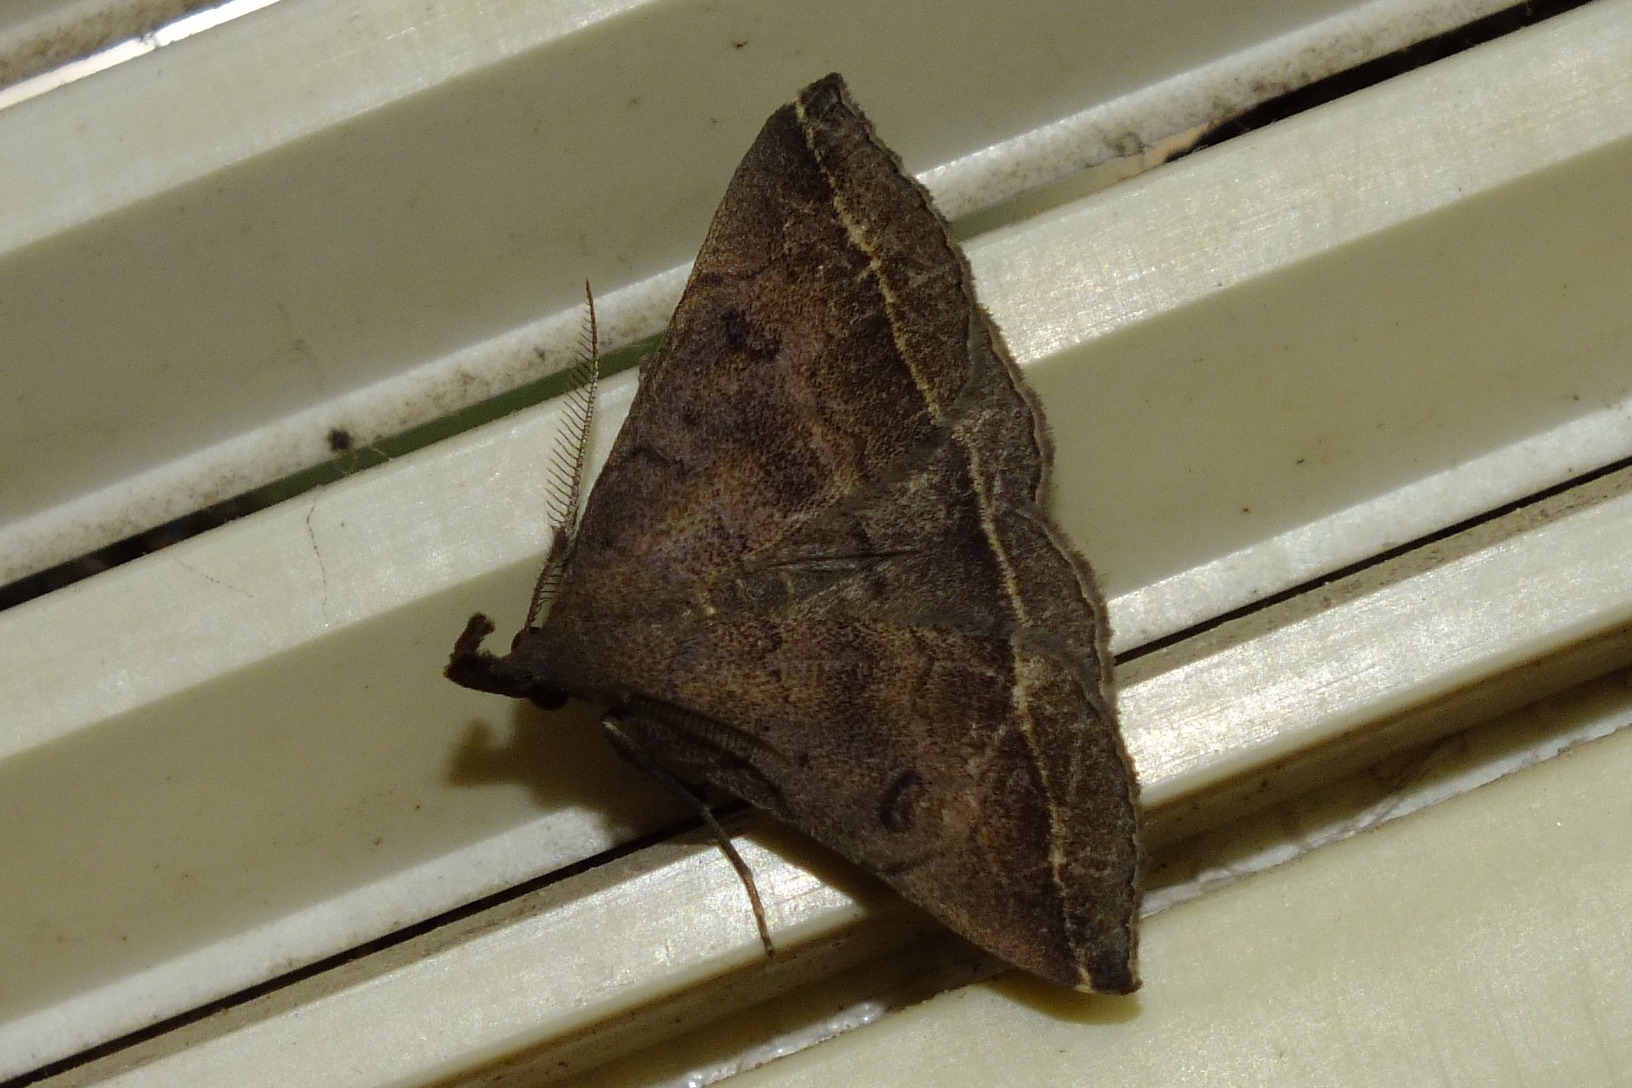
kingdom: Animalia
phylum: Arthropoda
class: Insecta
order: Lepidoptera
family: Erebidae
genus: Pechipogo
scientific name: Pechipogo plumigeralis
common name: Plumed fan-foot
